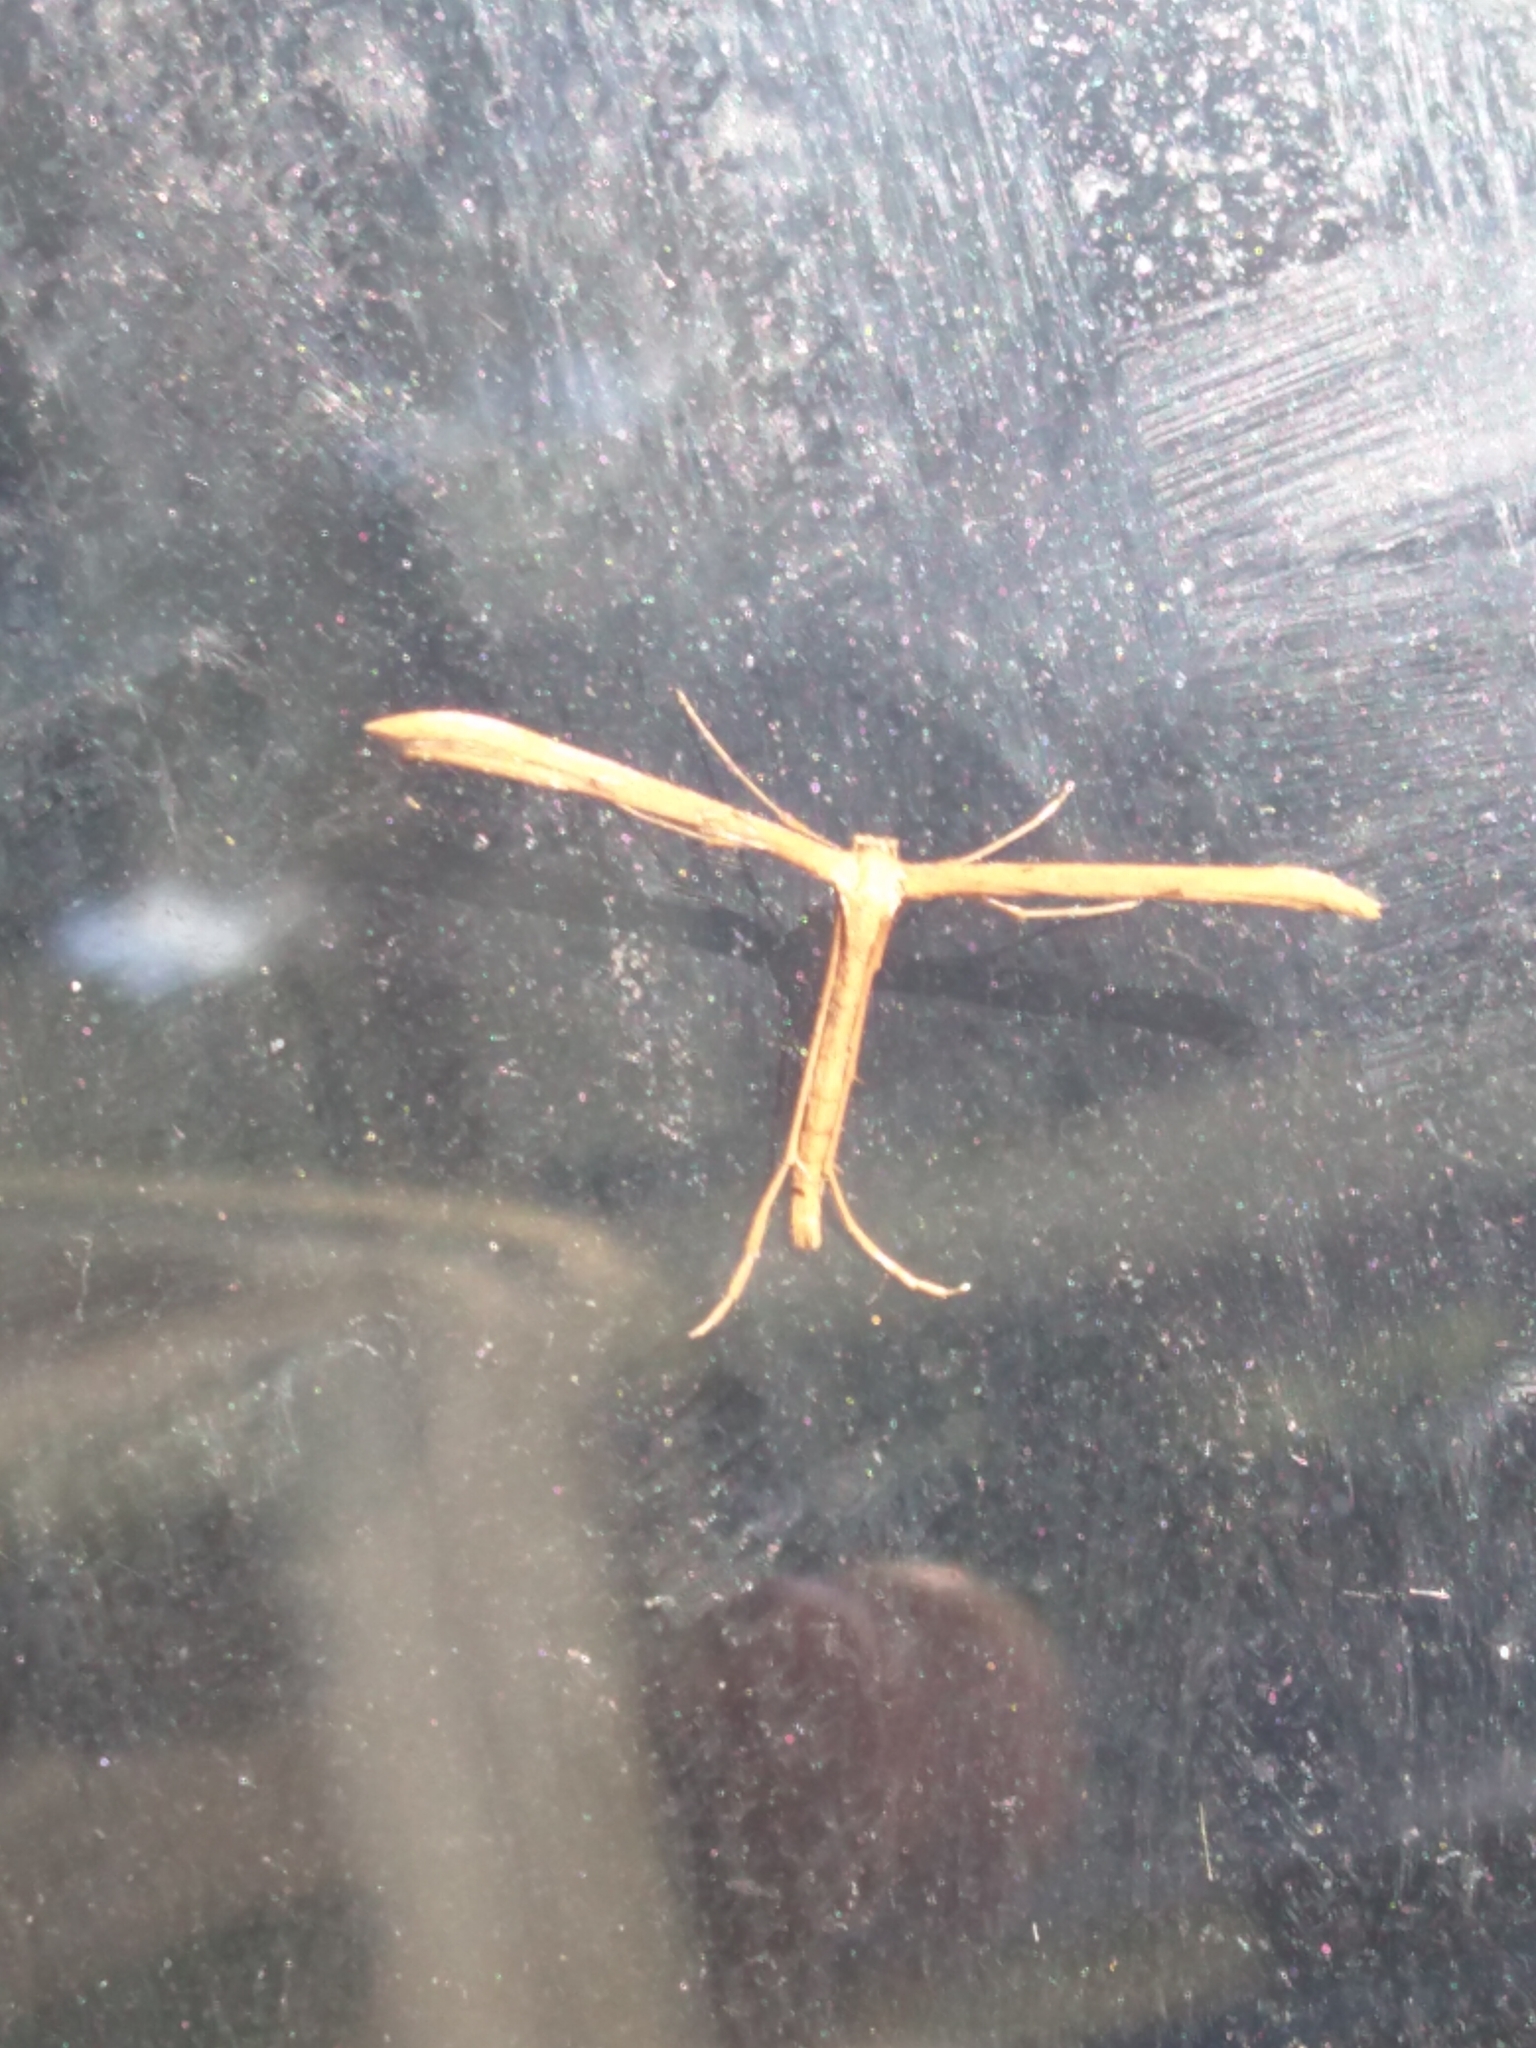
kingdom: Animalia
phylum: Arthropoda
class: Insecta
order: Lepidoptera
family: Pterophoridae
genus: Emmelina
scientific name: Emmelina monodactyla
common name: Common plume
